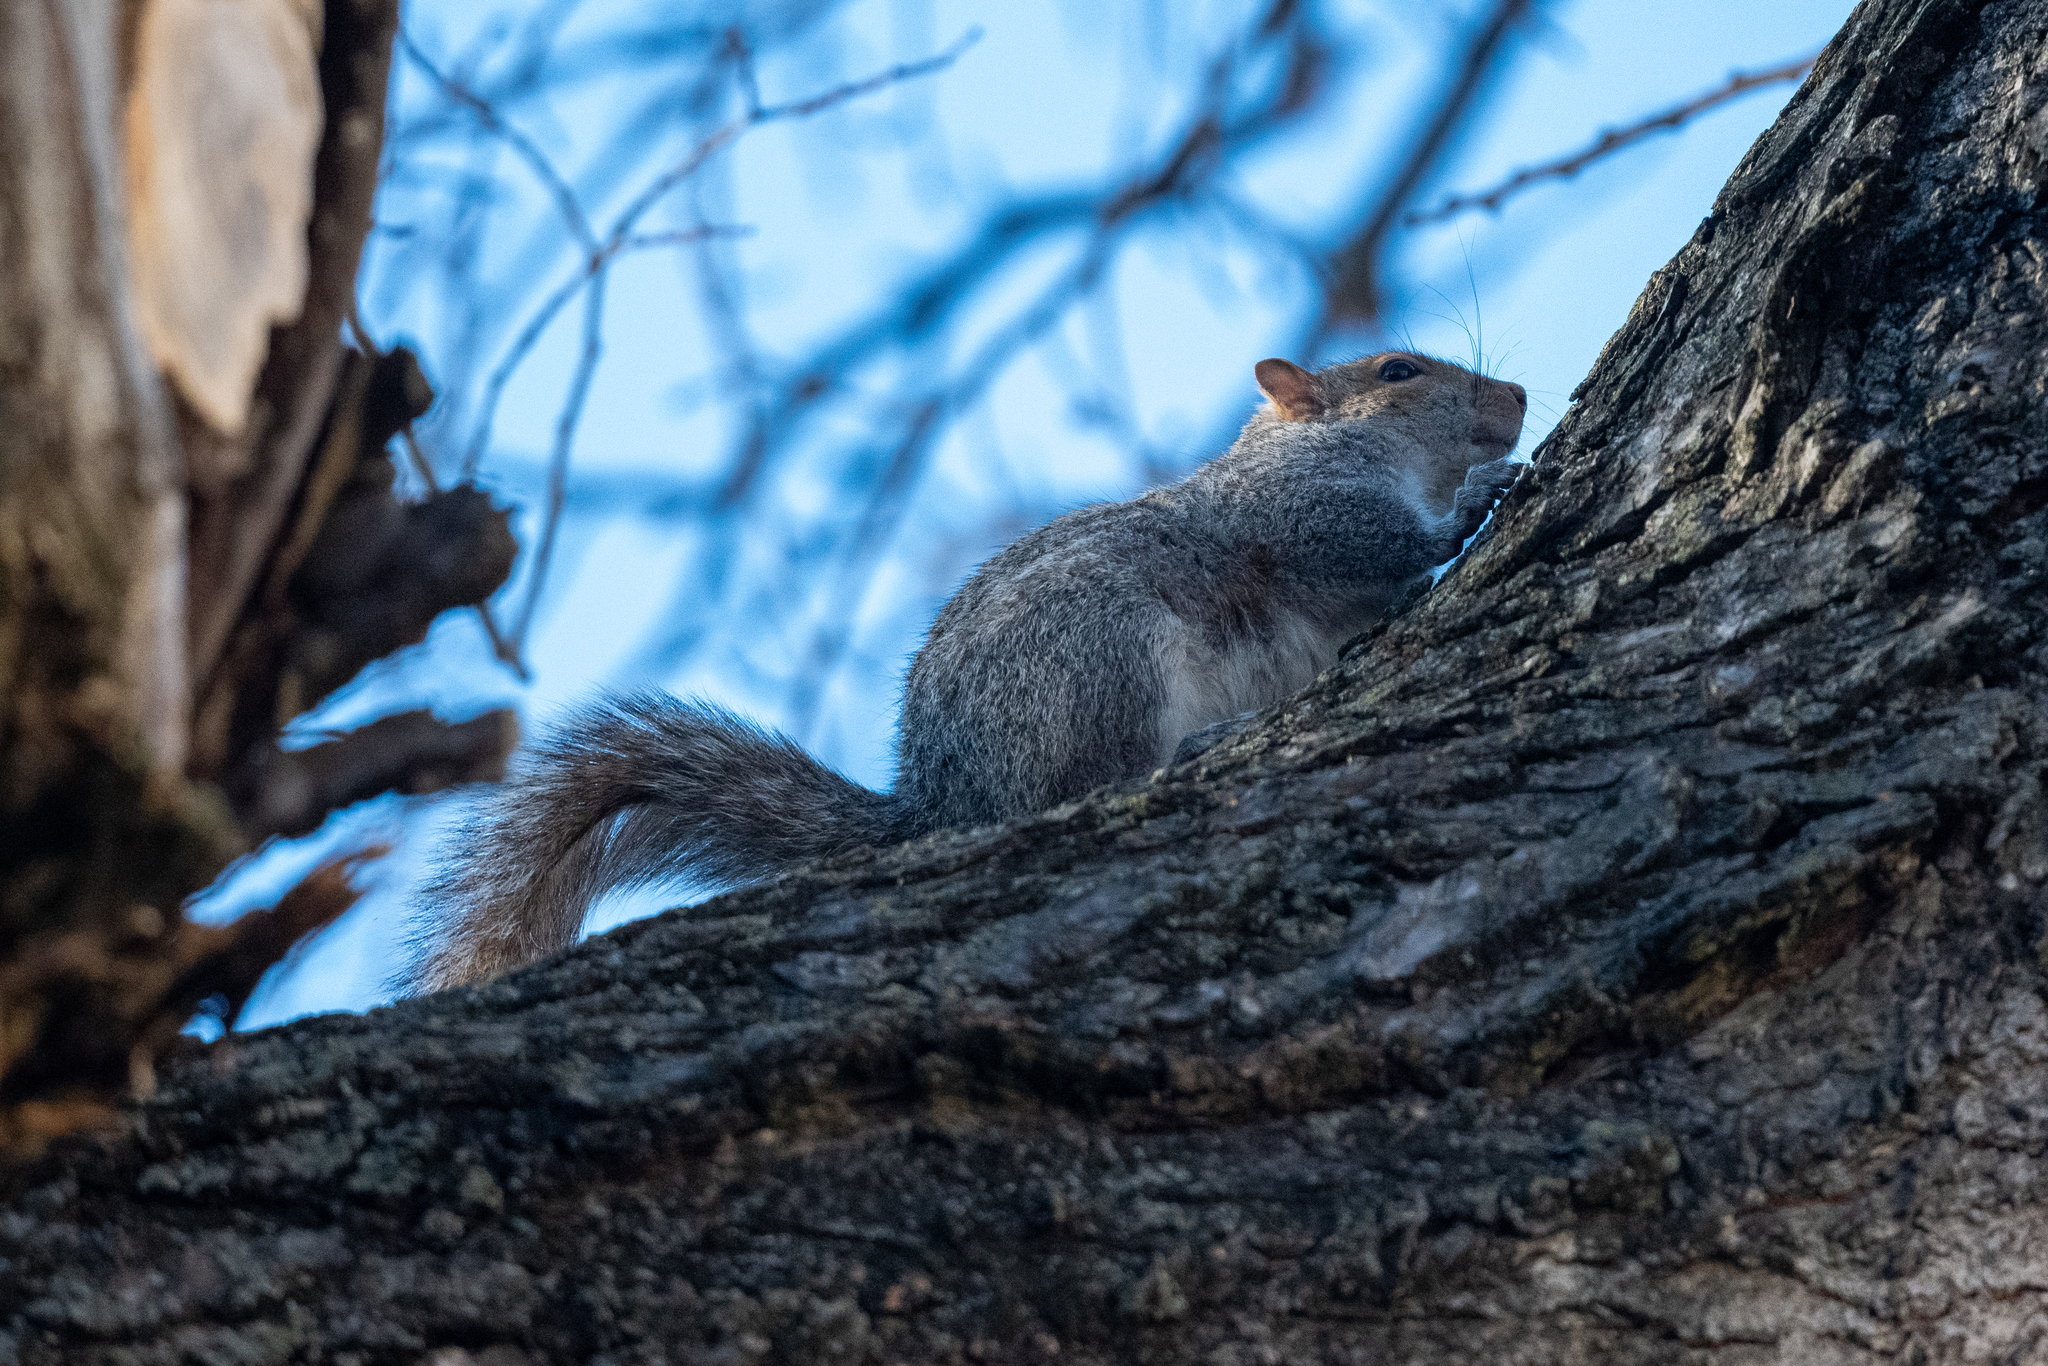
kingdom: Animalia
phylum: Chordata
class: Mammalia
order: Rodentia
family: Sciuridae
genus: Sciurus
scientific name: Sciurus carolinensis
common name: Eastern gray squirrel
